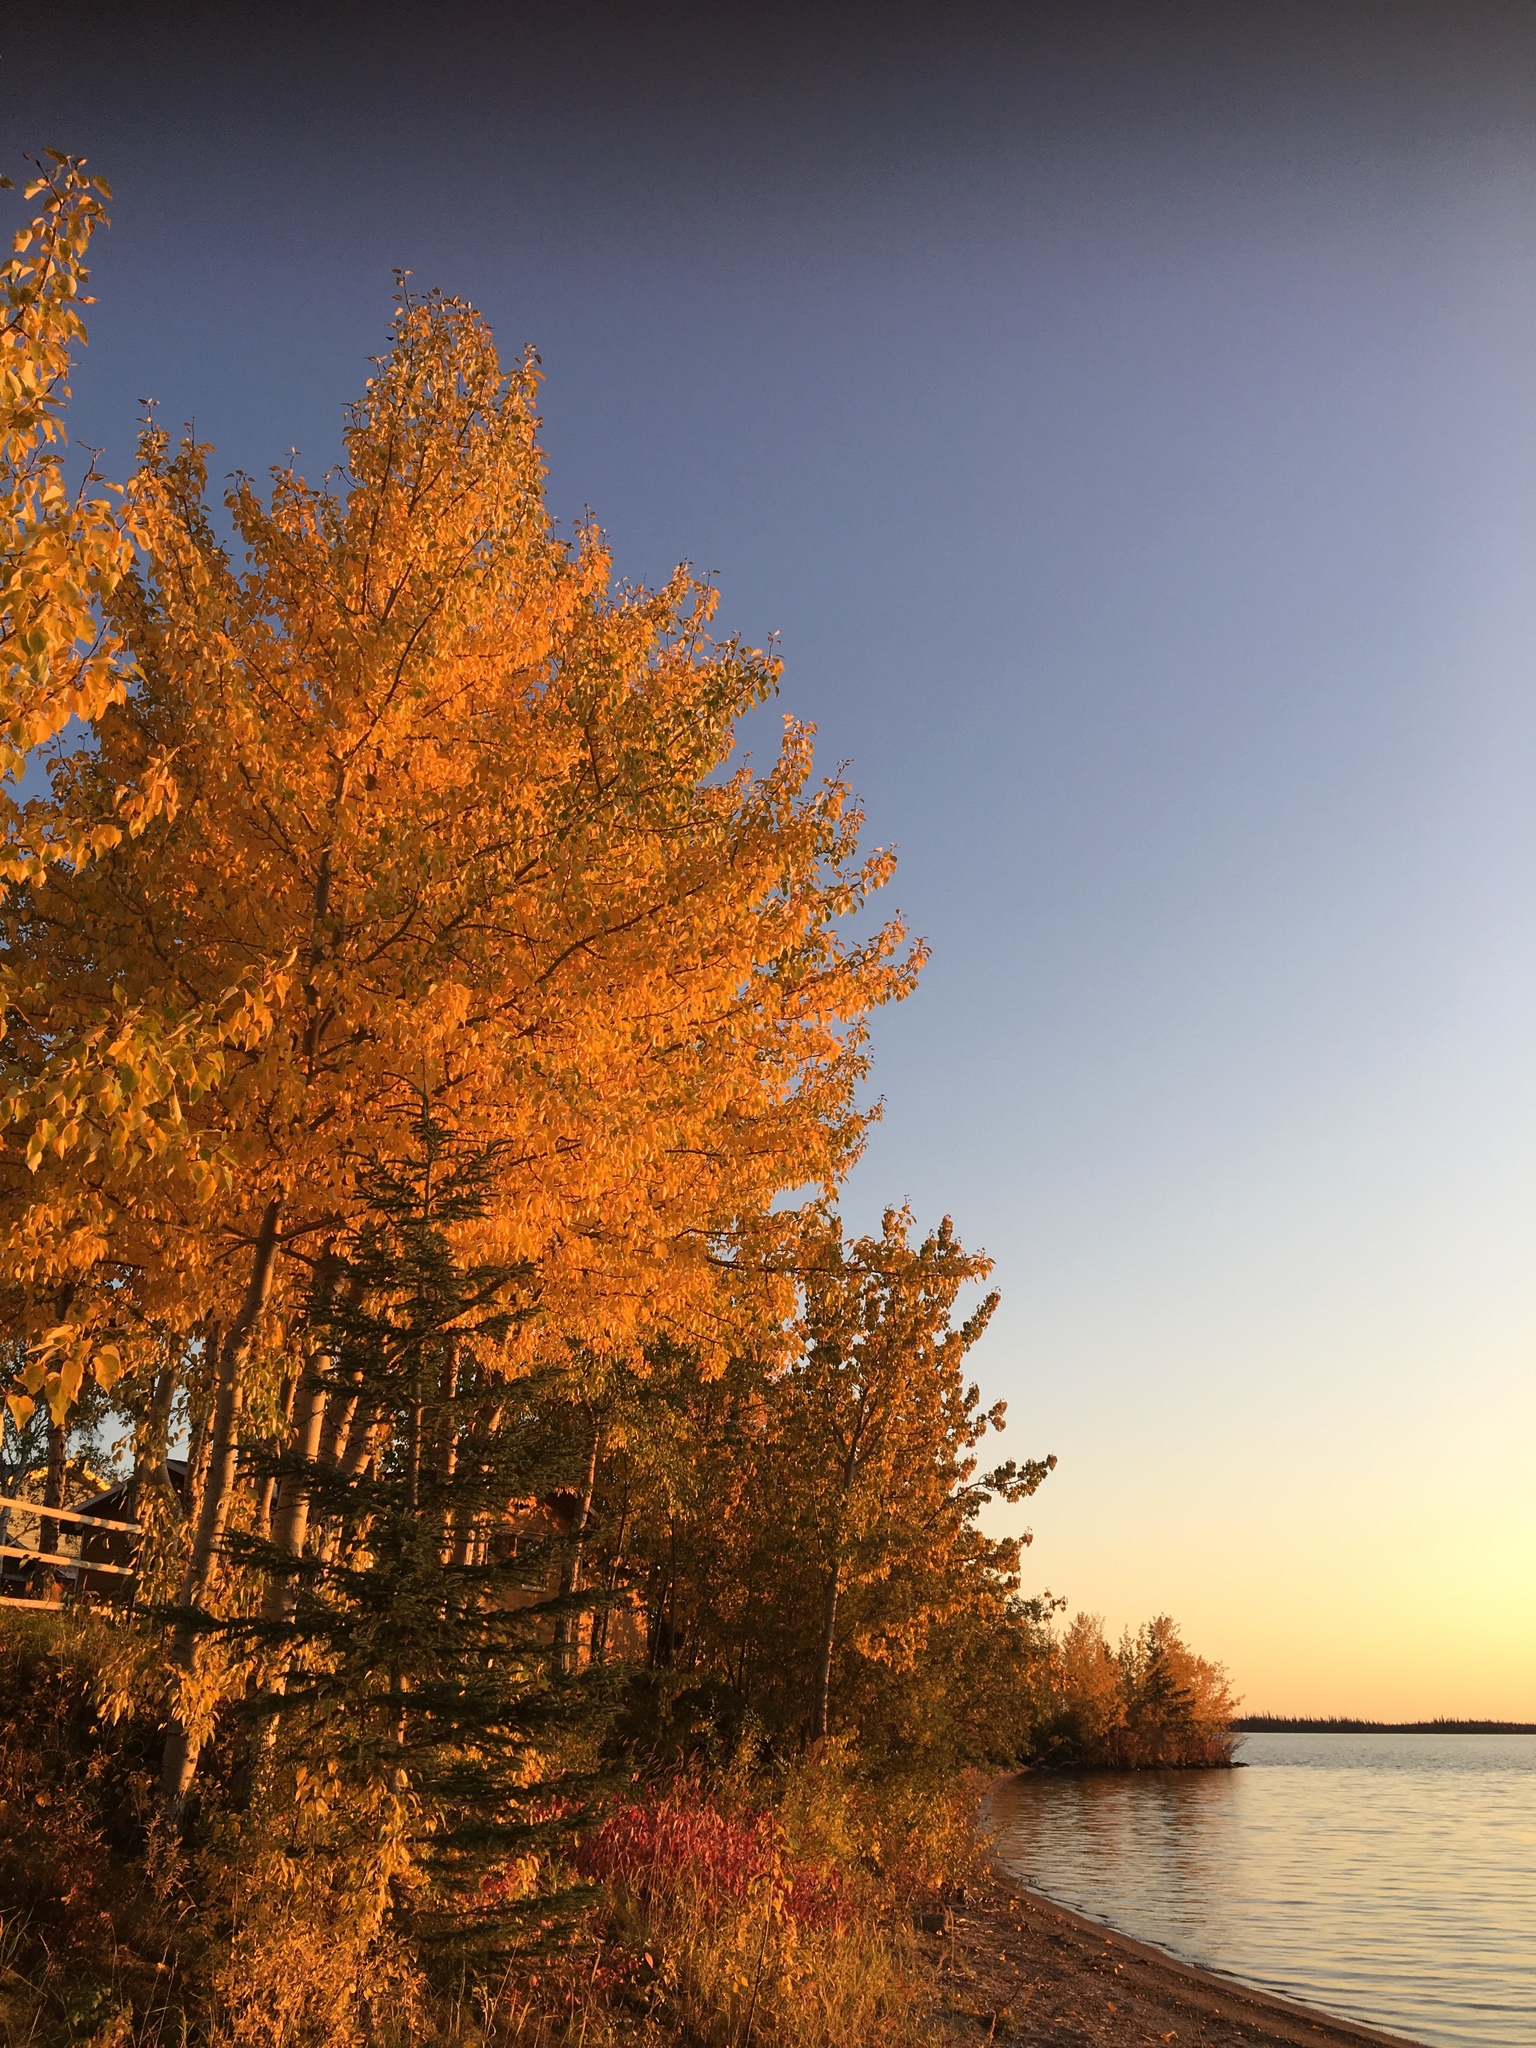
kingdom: Plantae
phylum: Tracheophyta
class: Magnoliopsida
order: Malpighiales
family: Salicaceae
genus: Populus
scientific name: Populus tremuloides
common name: Quaking aspen
